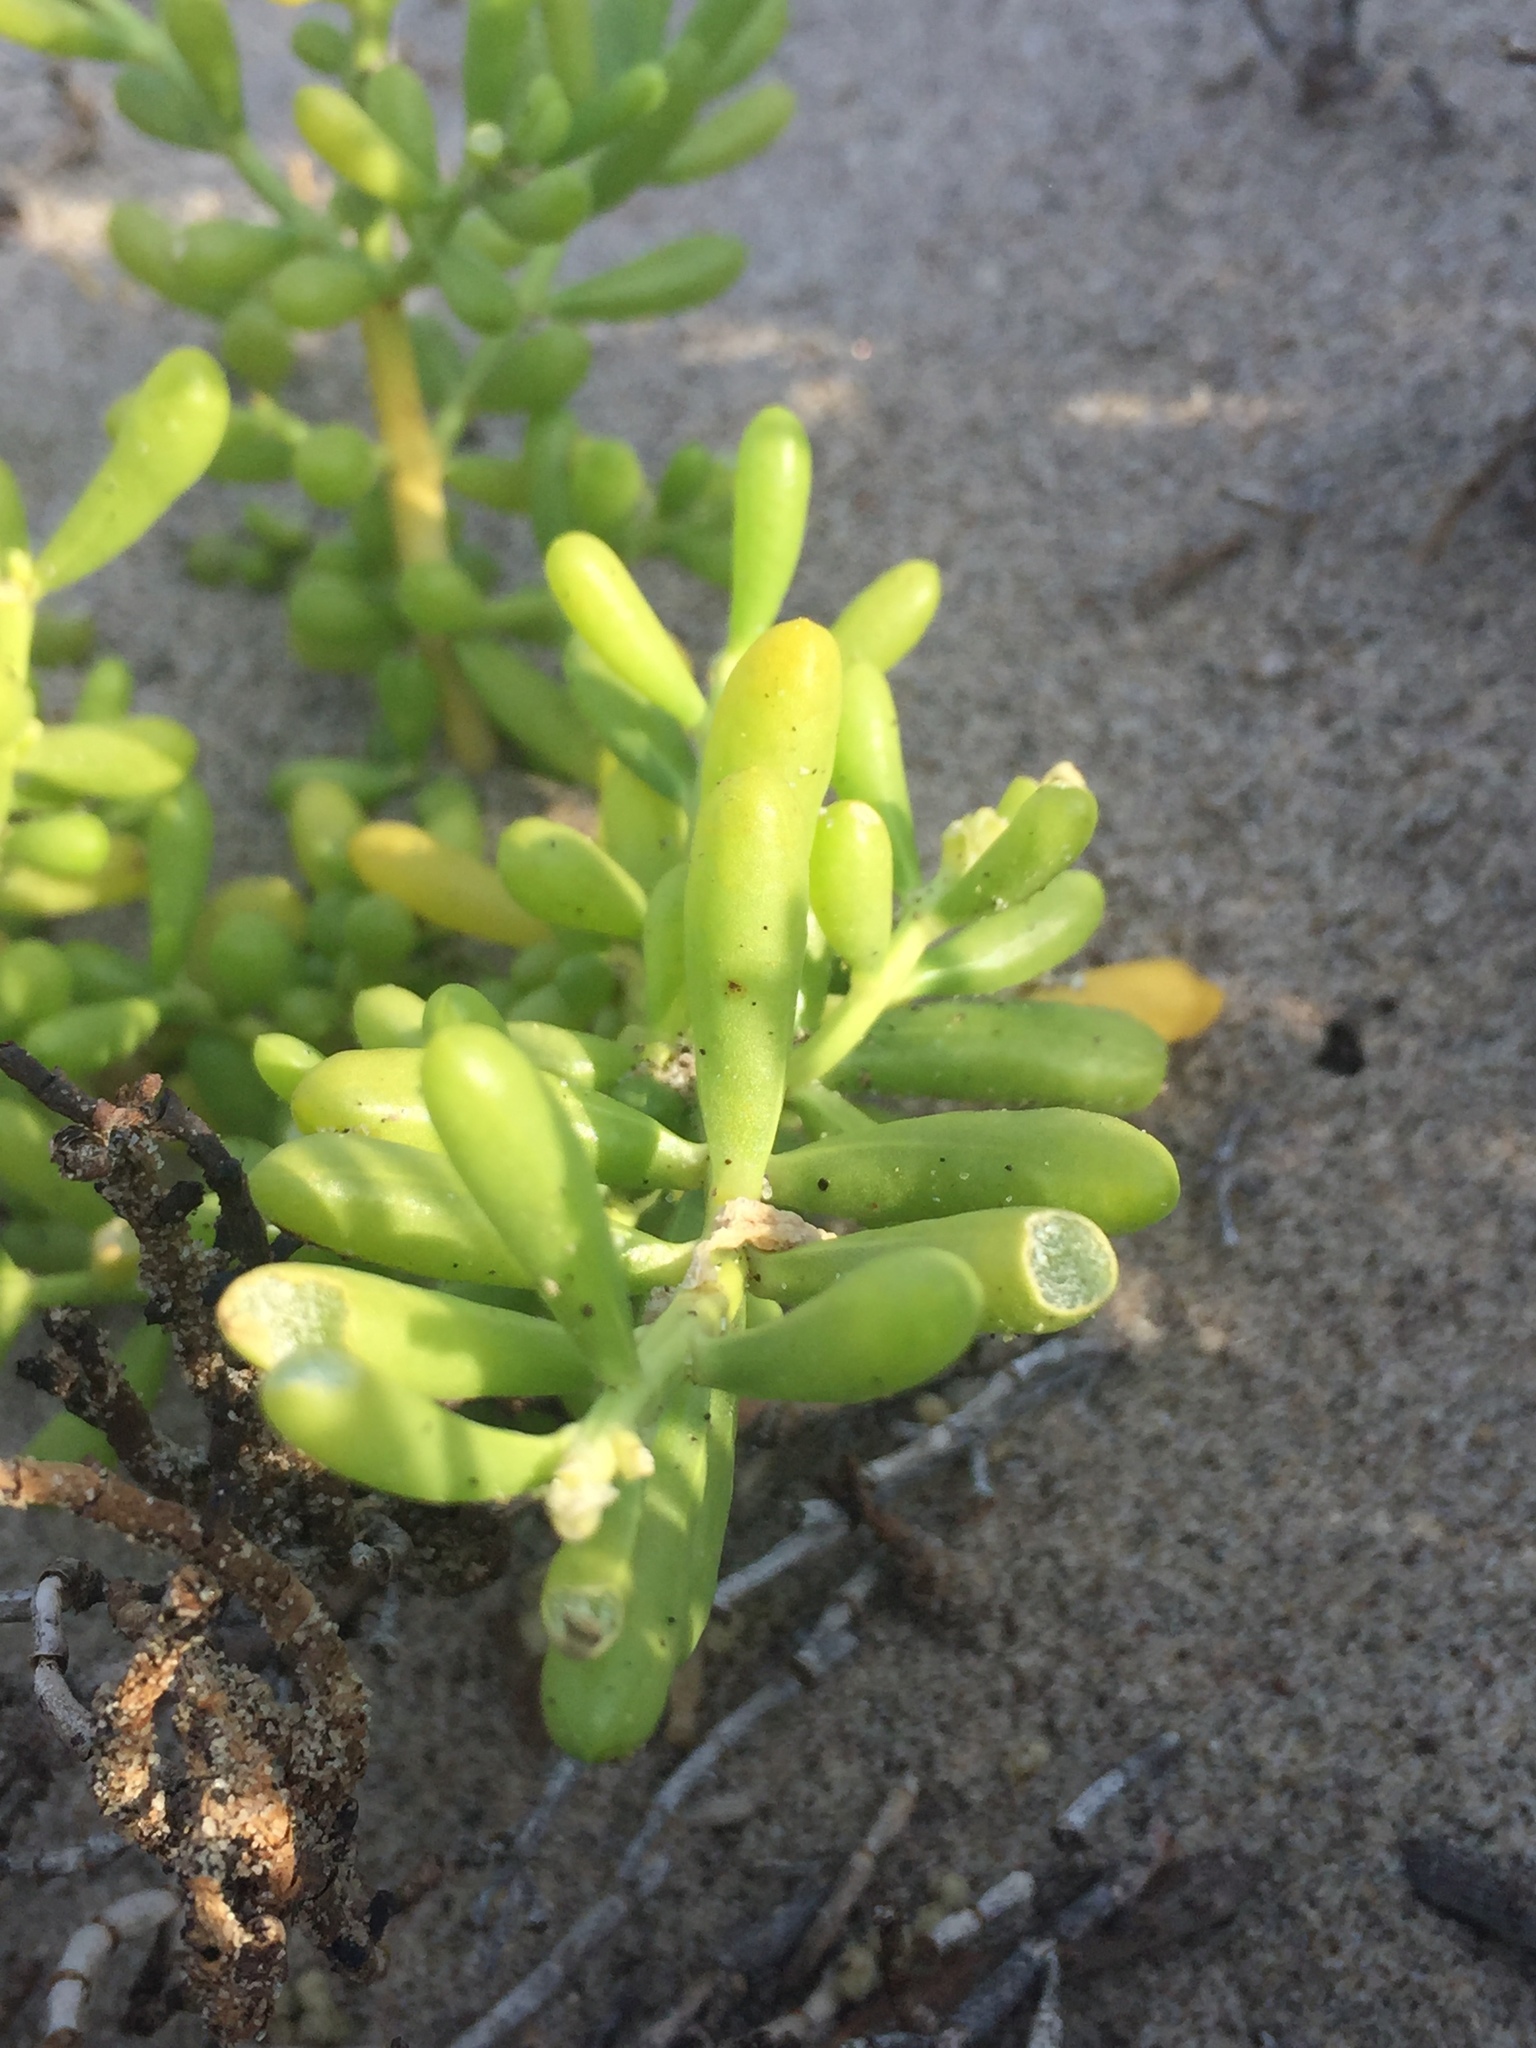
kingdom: Plantae
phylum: Tracheophyta
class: Magnoliopsida
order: Brassicales
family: Bataceae
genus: Batis
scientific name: Batis maritima
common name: Turtleweed
